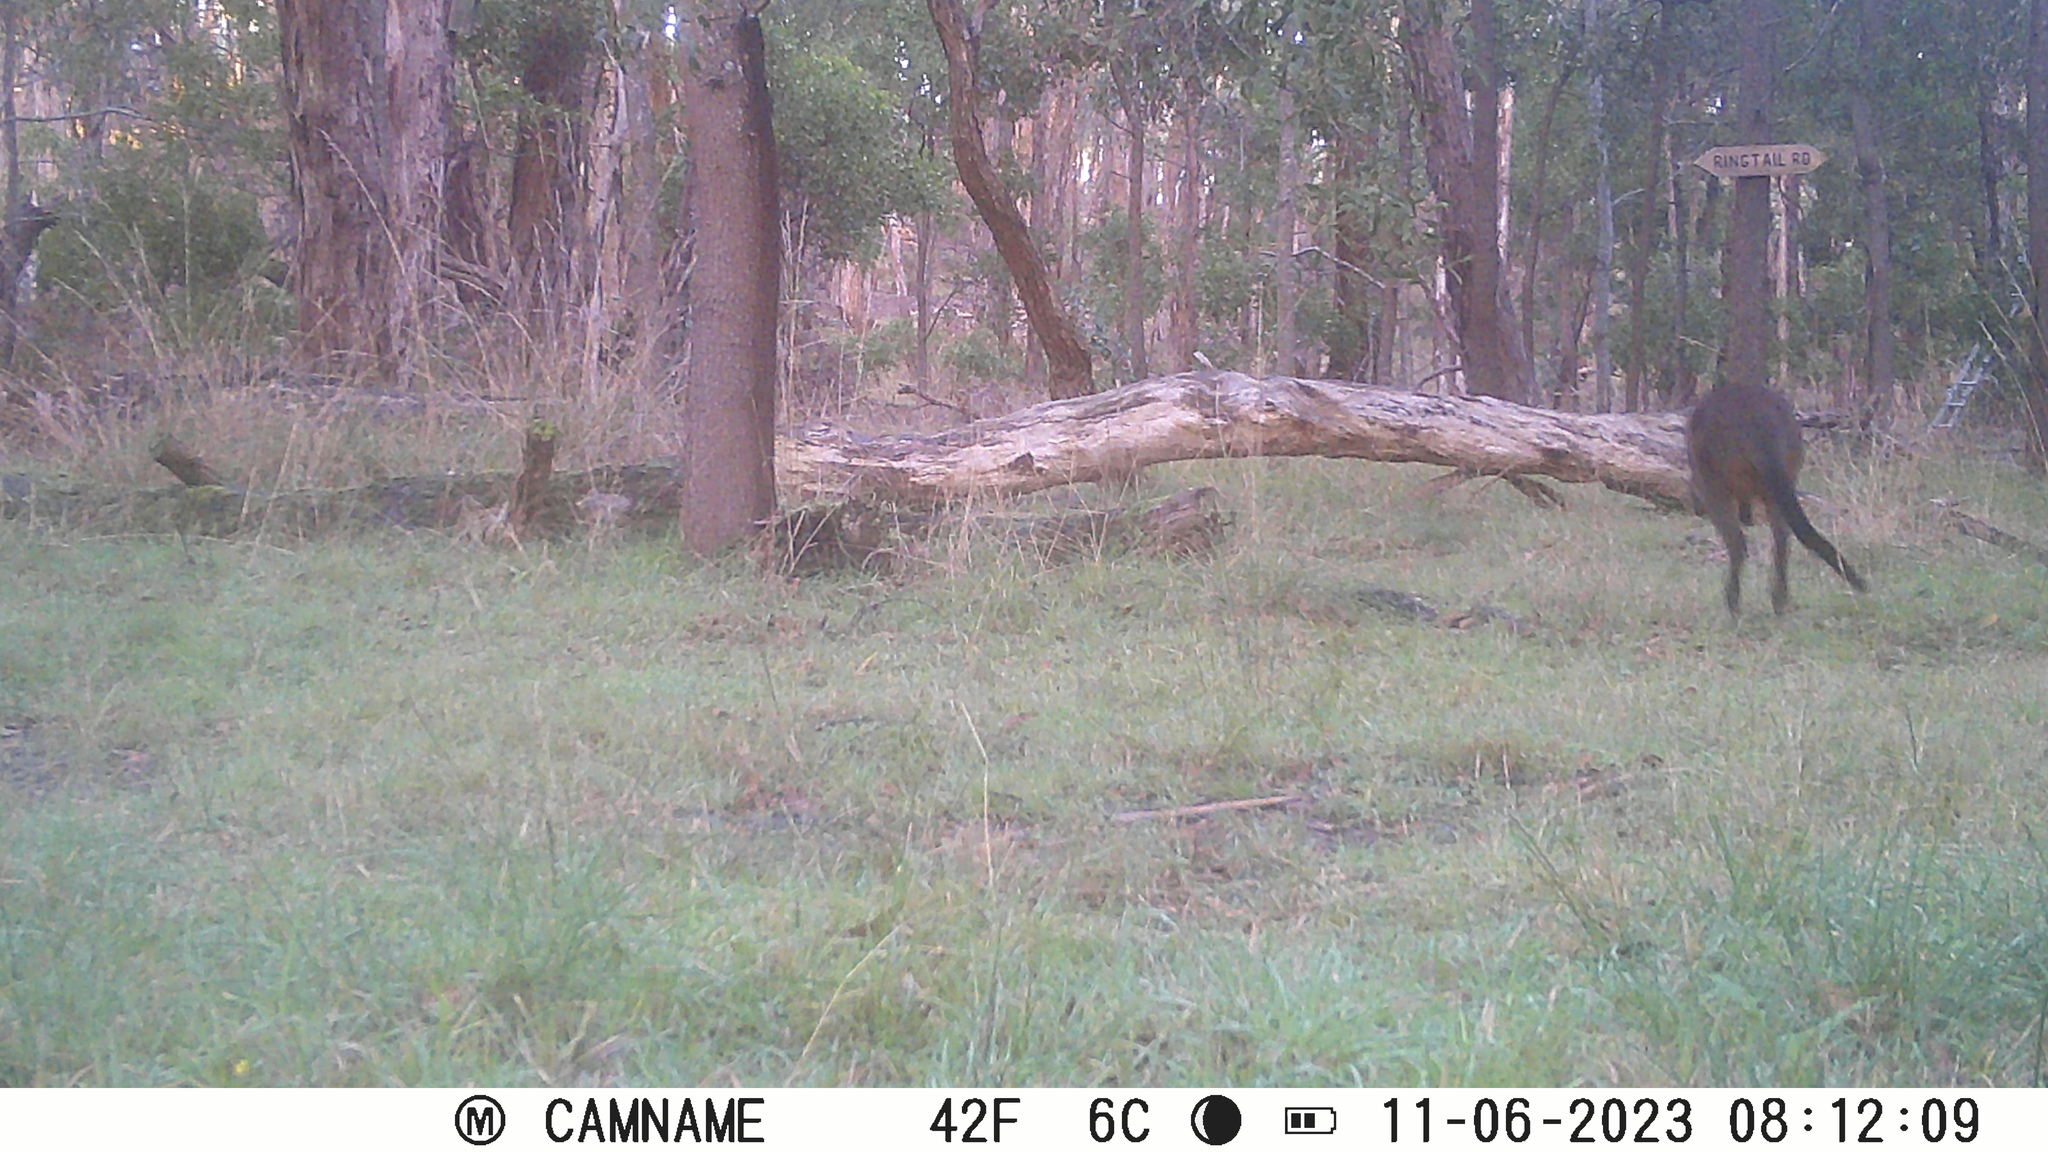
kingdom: Animalia
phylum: Chordata
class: Mammalia
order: Diprotodontia
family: Macropodidae
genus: Wallabia
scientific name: Wallabia bicolor
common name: Swamp wallaby
